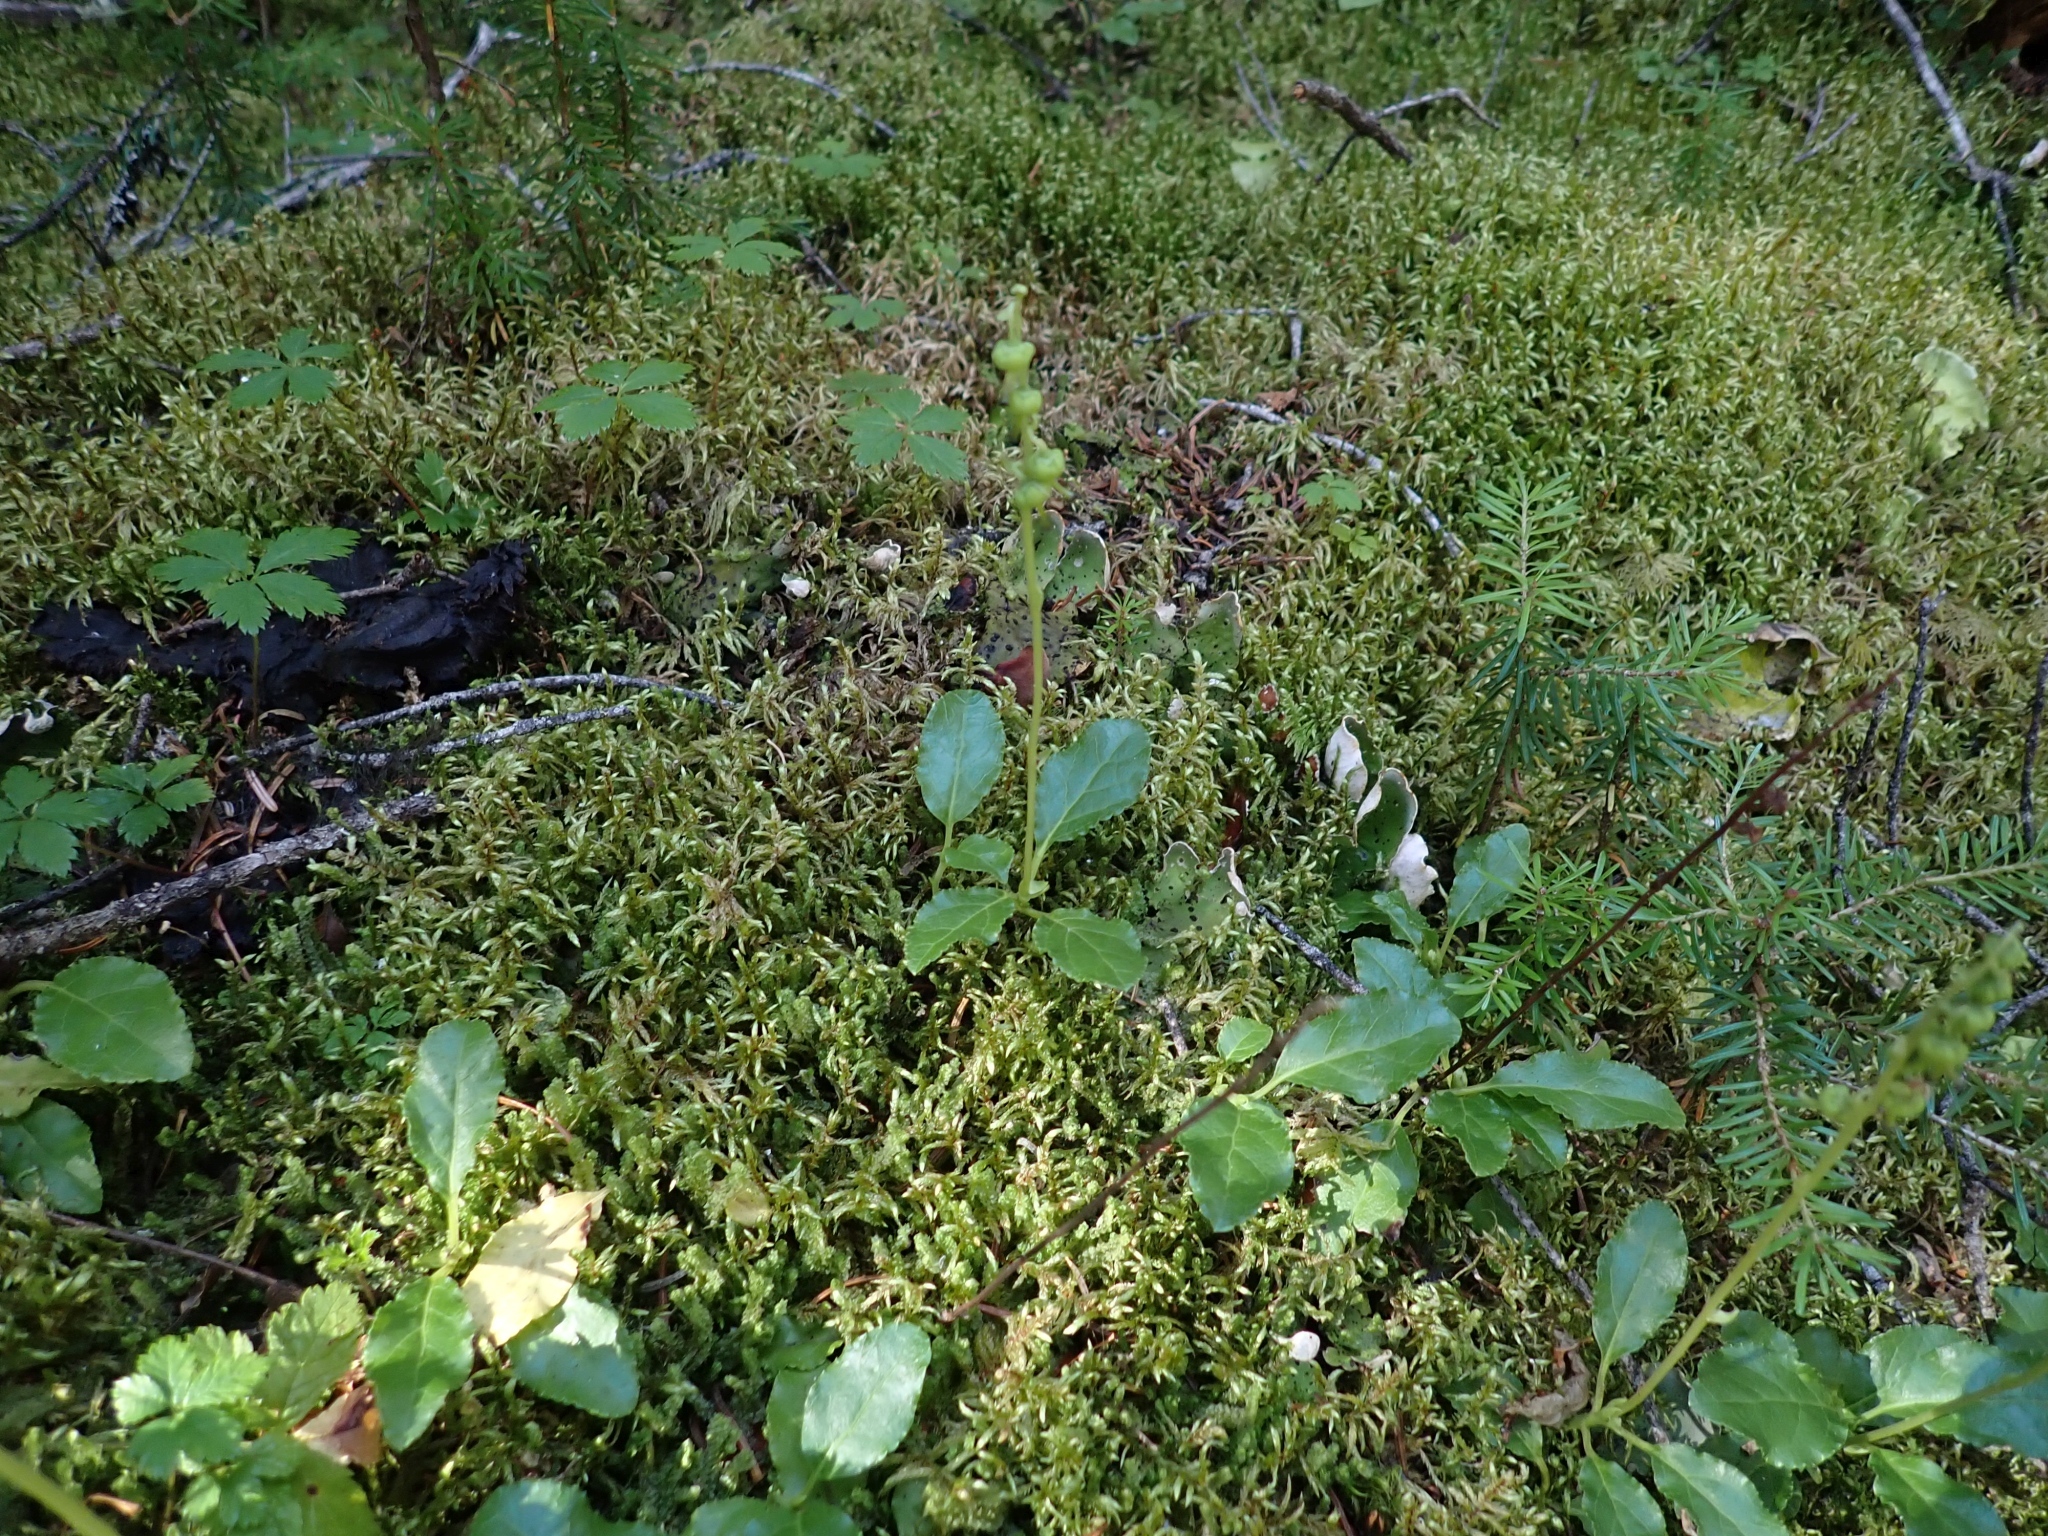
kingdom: Plantae
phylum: Tracheophyta
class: Magnoliopsida
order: Ericales
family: Ericaceae
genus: Orthilia
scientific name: Orthilia secunda
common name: One-sided orthilia
